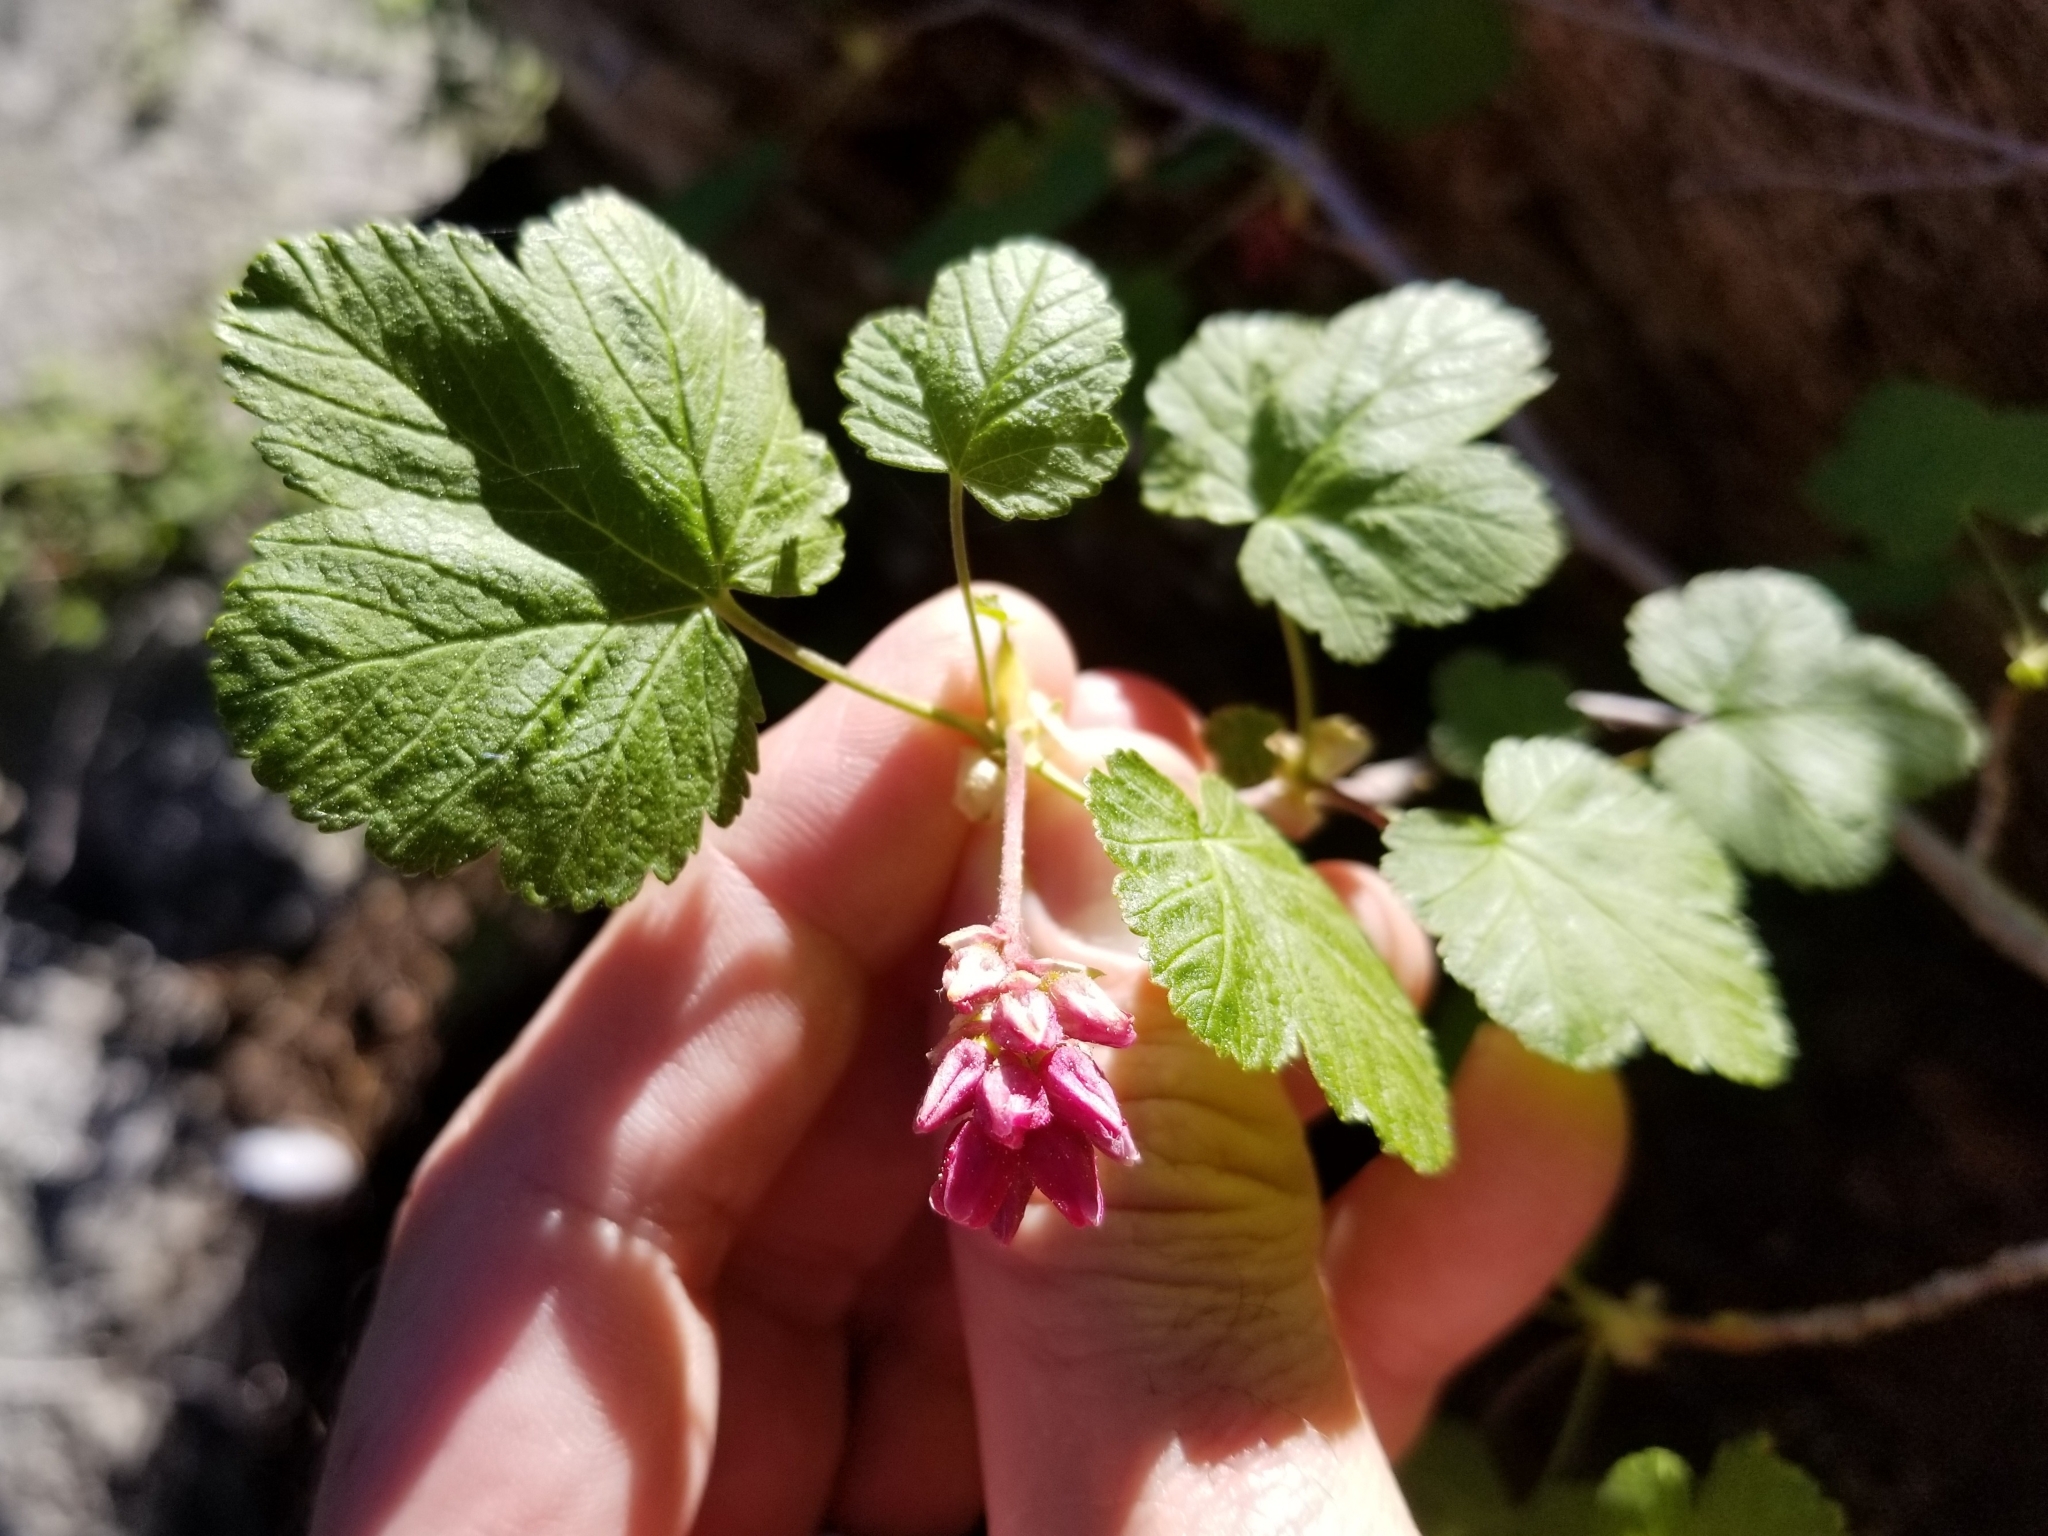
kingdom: Plantae
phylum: Tracheophyta
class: Magnoliopsida
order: Saxifragales
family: Grossulariaceae
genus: Ribes
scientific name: Ribes nevadense
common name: Mountain pink currant
